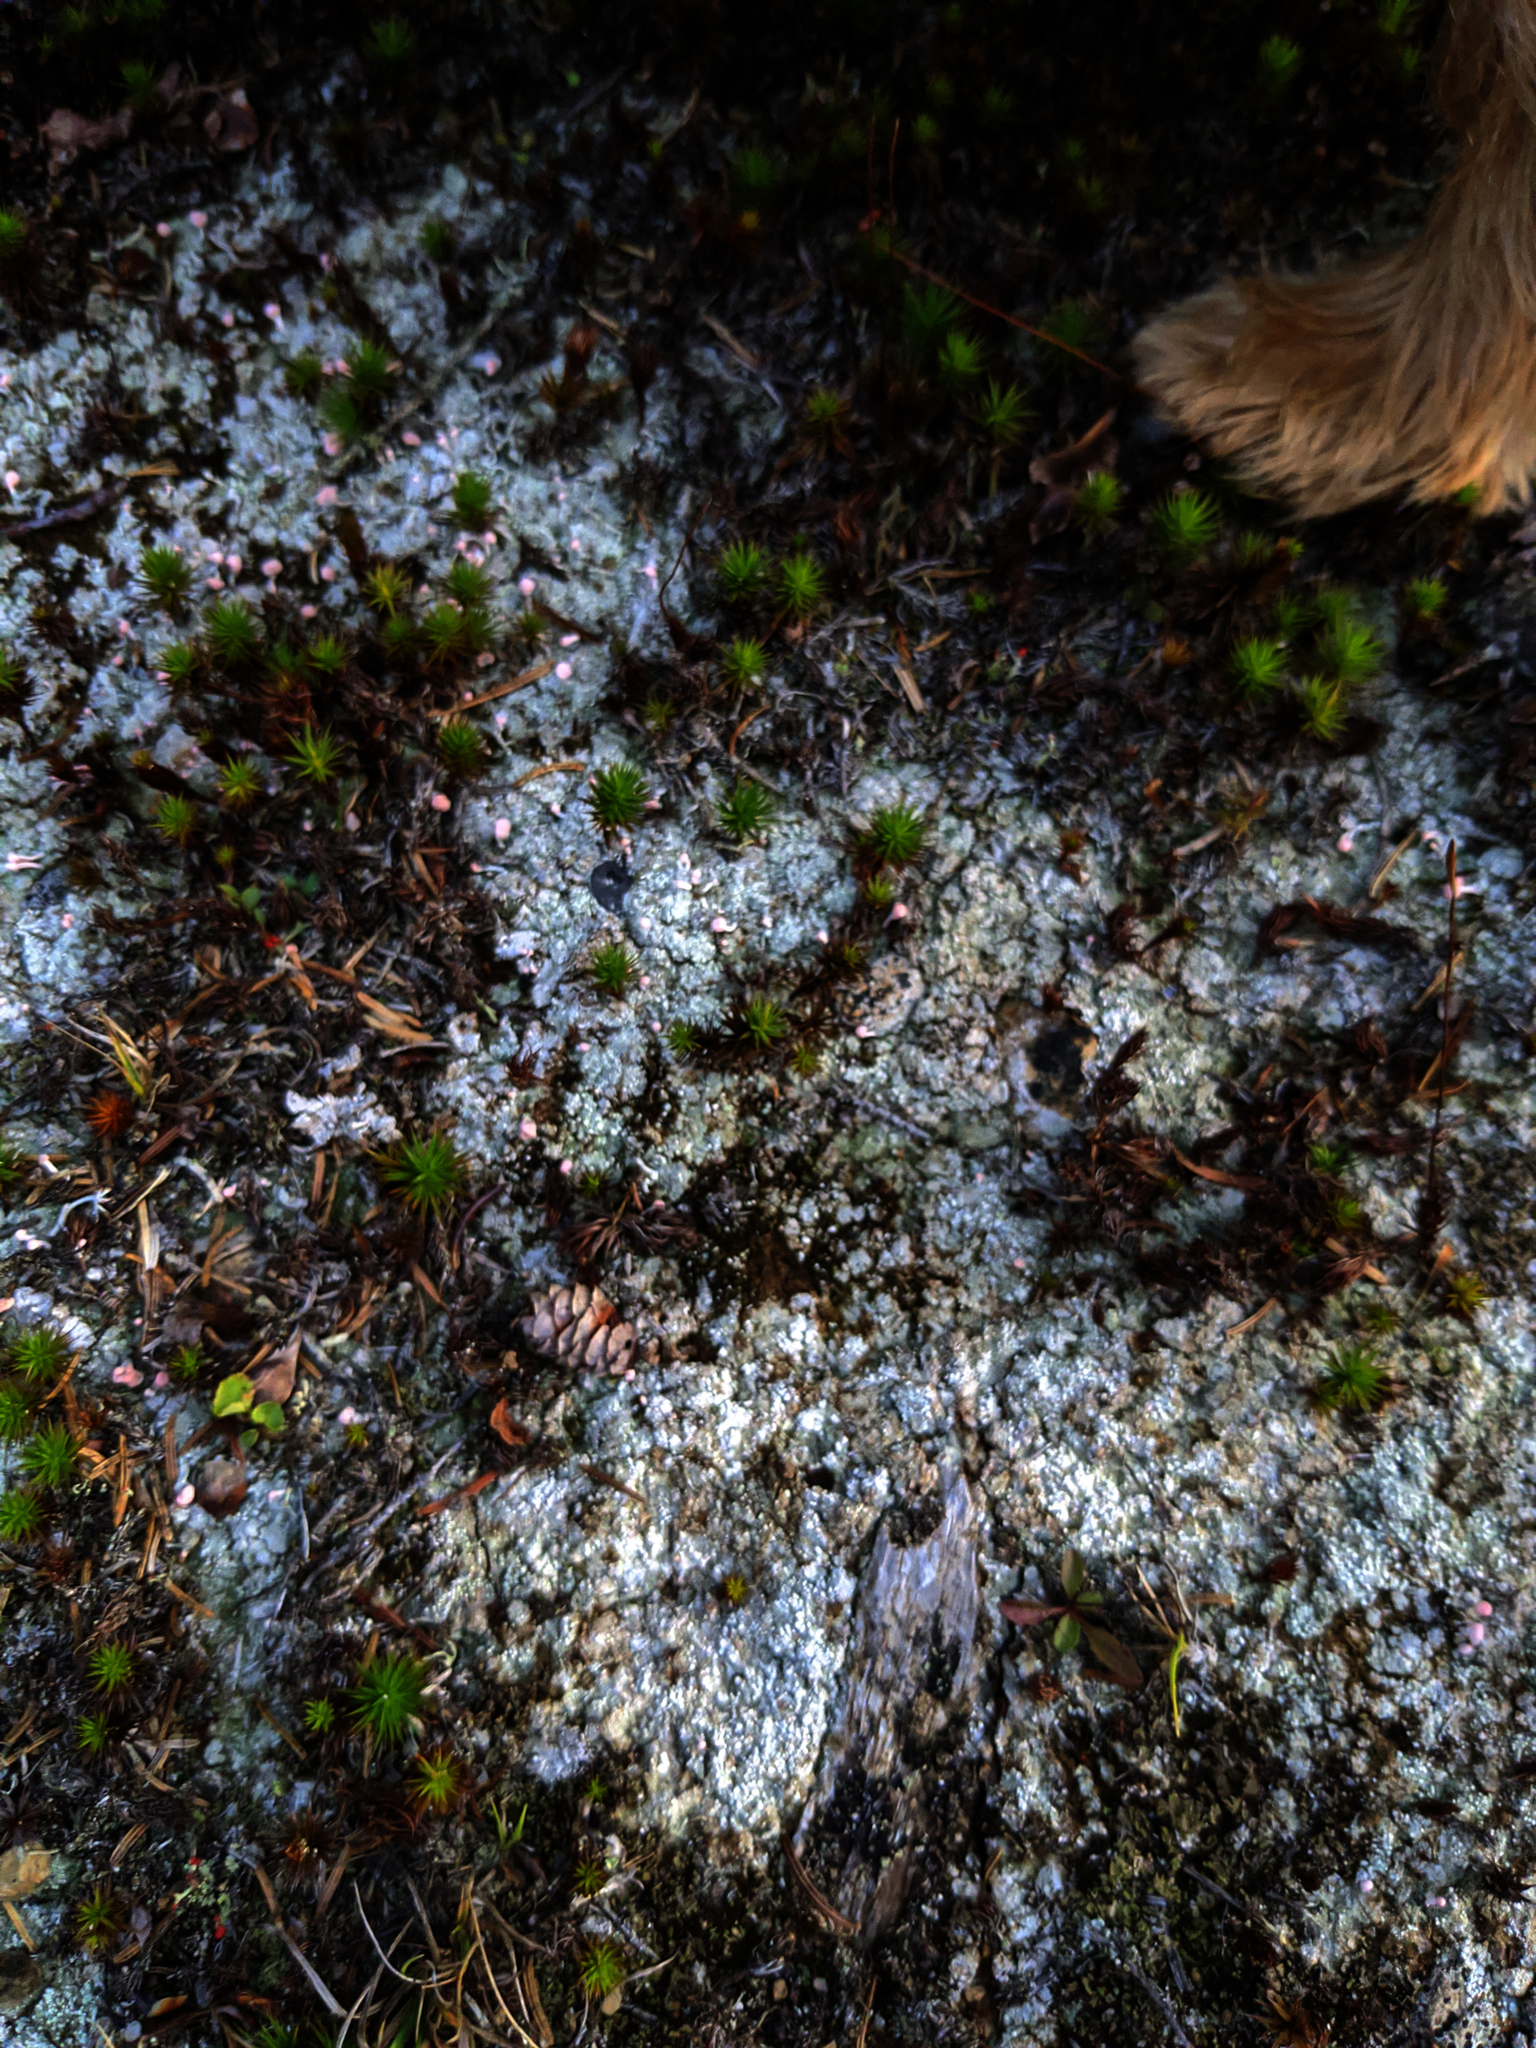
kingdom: Fungi
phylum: Ascomycota
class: Lecanoromycetes
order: Pertusariales
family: Icmadophilaceae
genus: Dibaeis
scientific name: Dibaeis baeomyces
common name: Pink earth lichen
